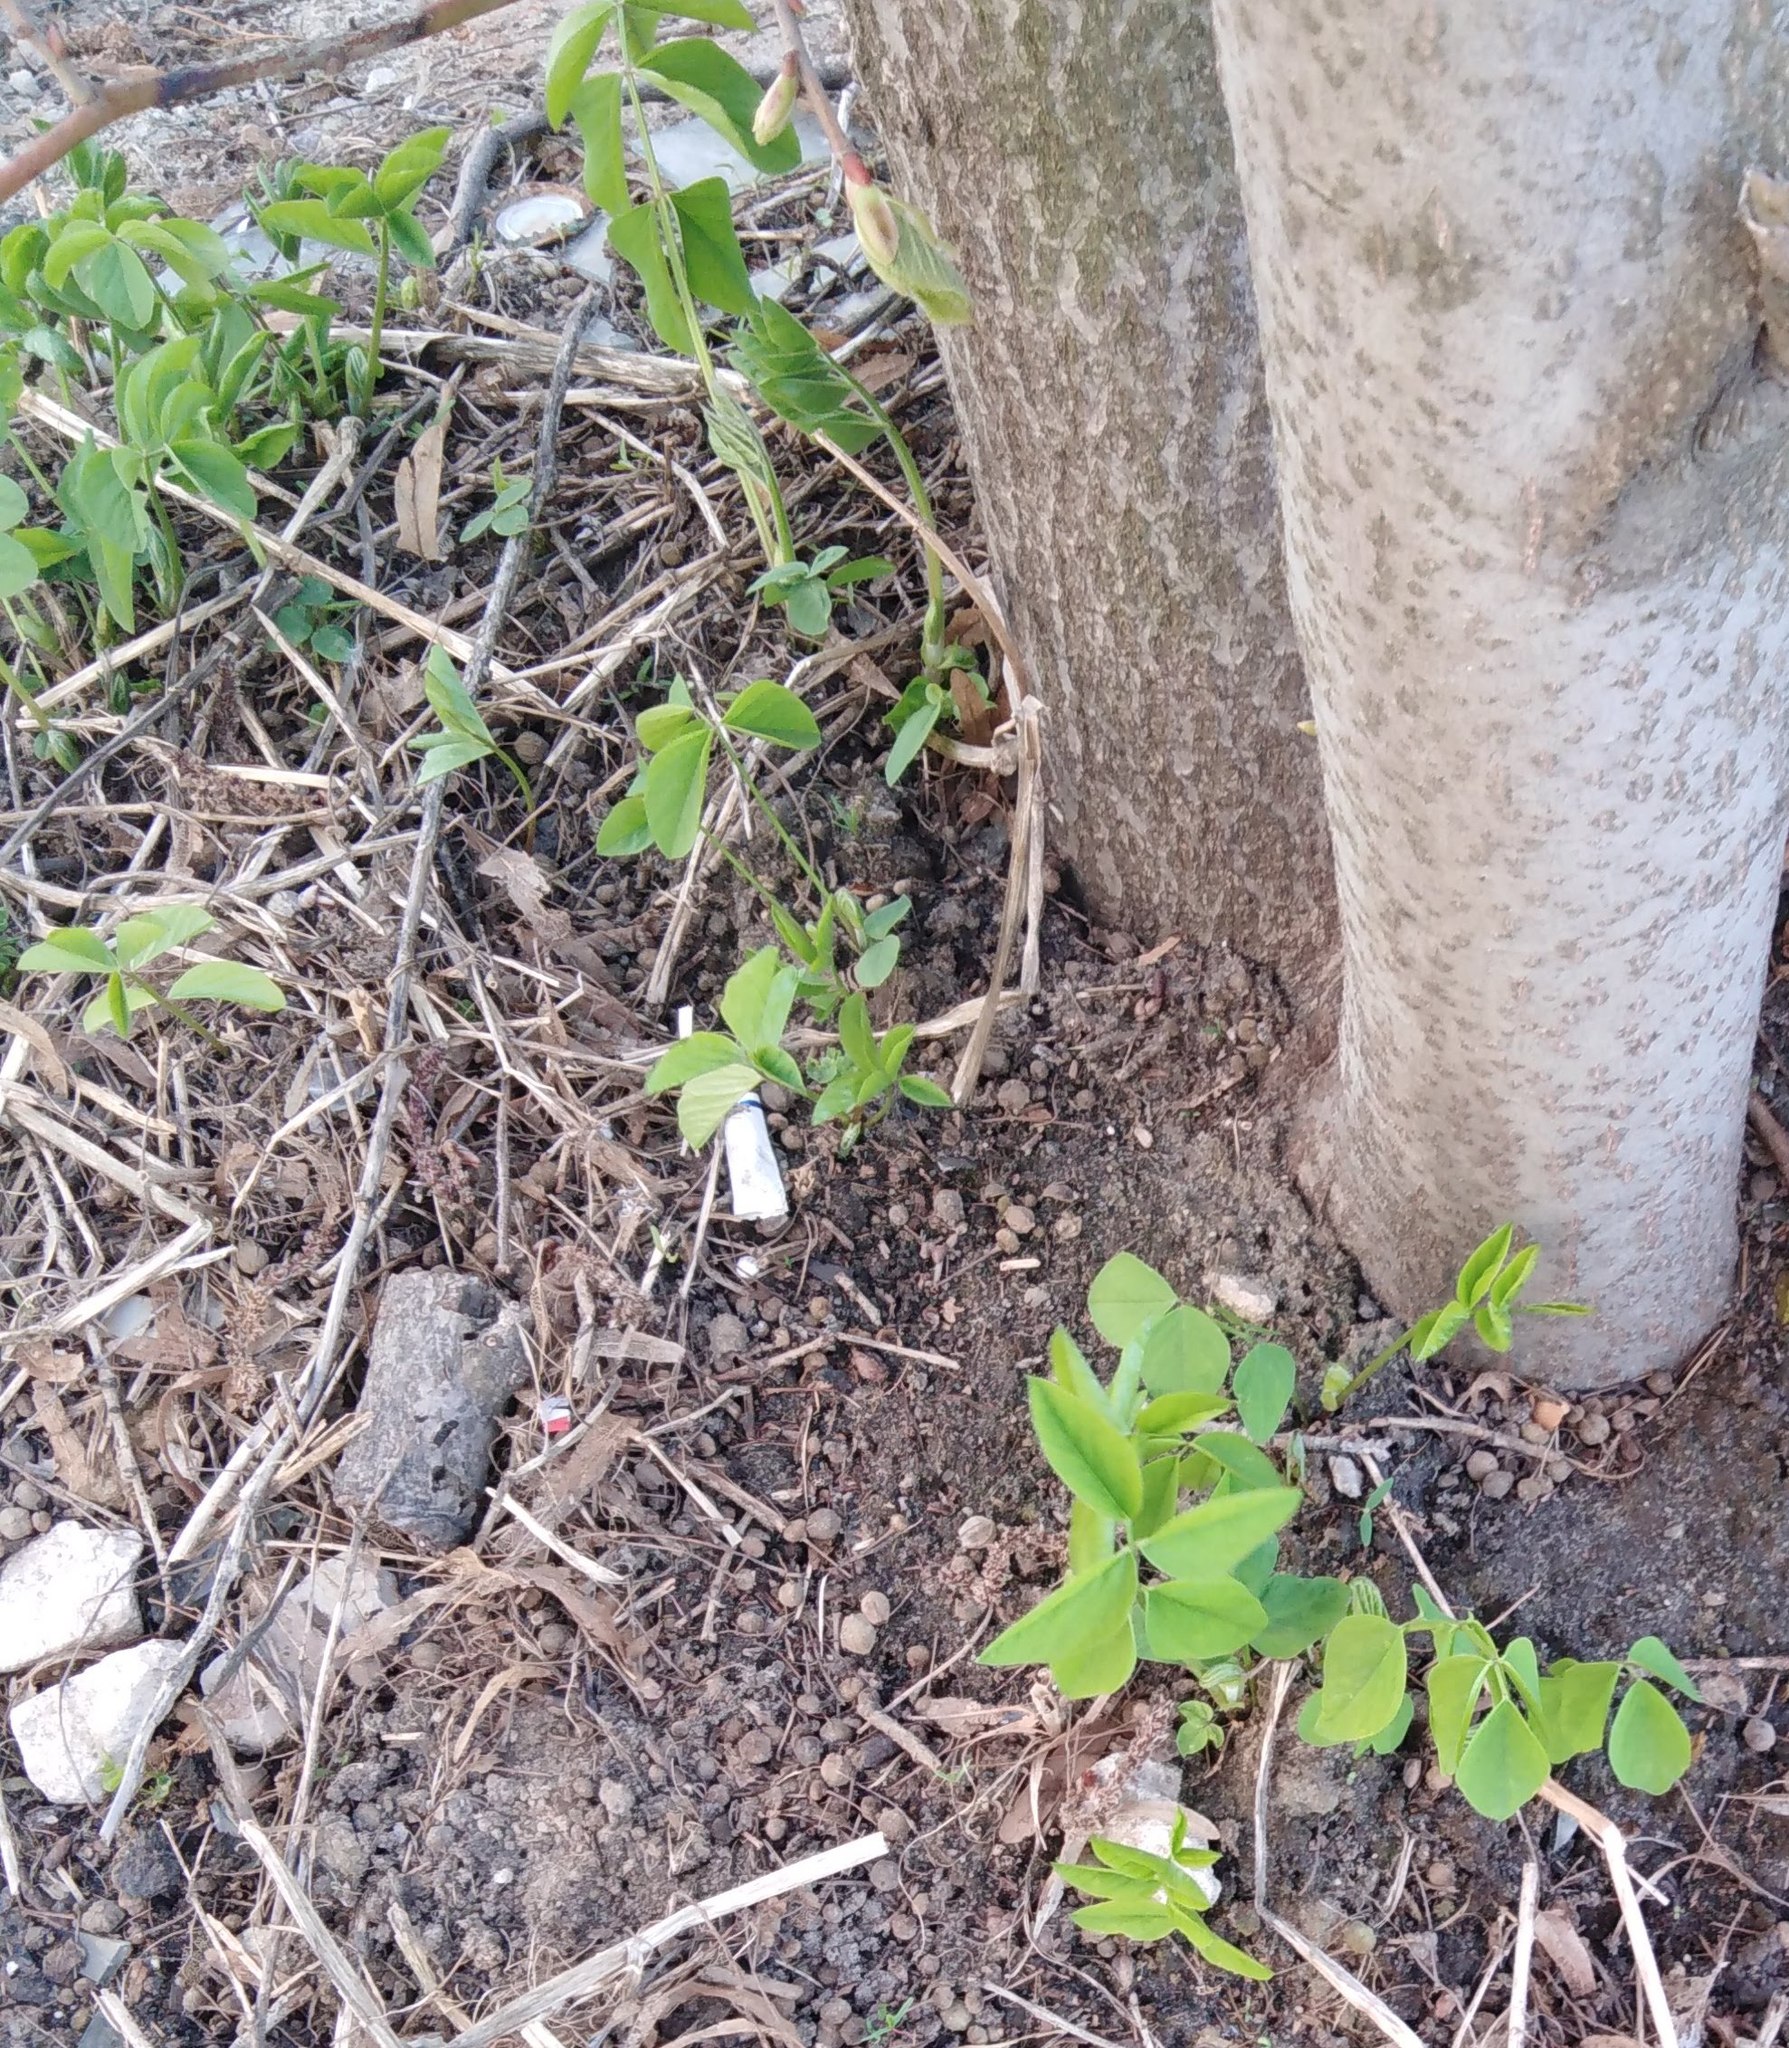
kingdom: Plantae
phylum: Tracheophyta
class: Magnoliopsida
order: Fabales
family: Fabaceae
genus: Galega
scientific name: Galega orientalis
